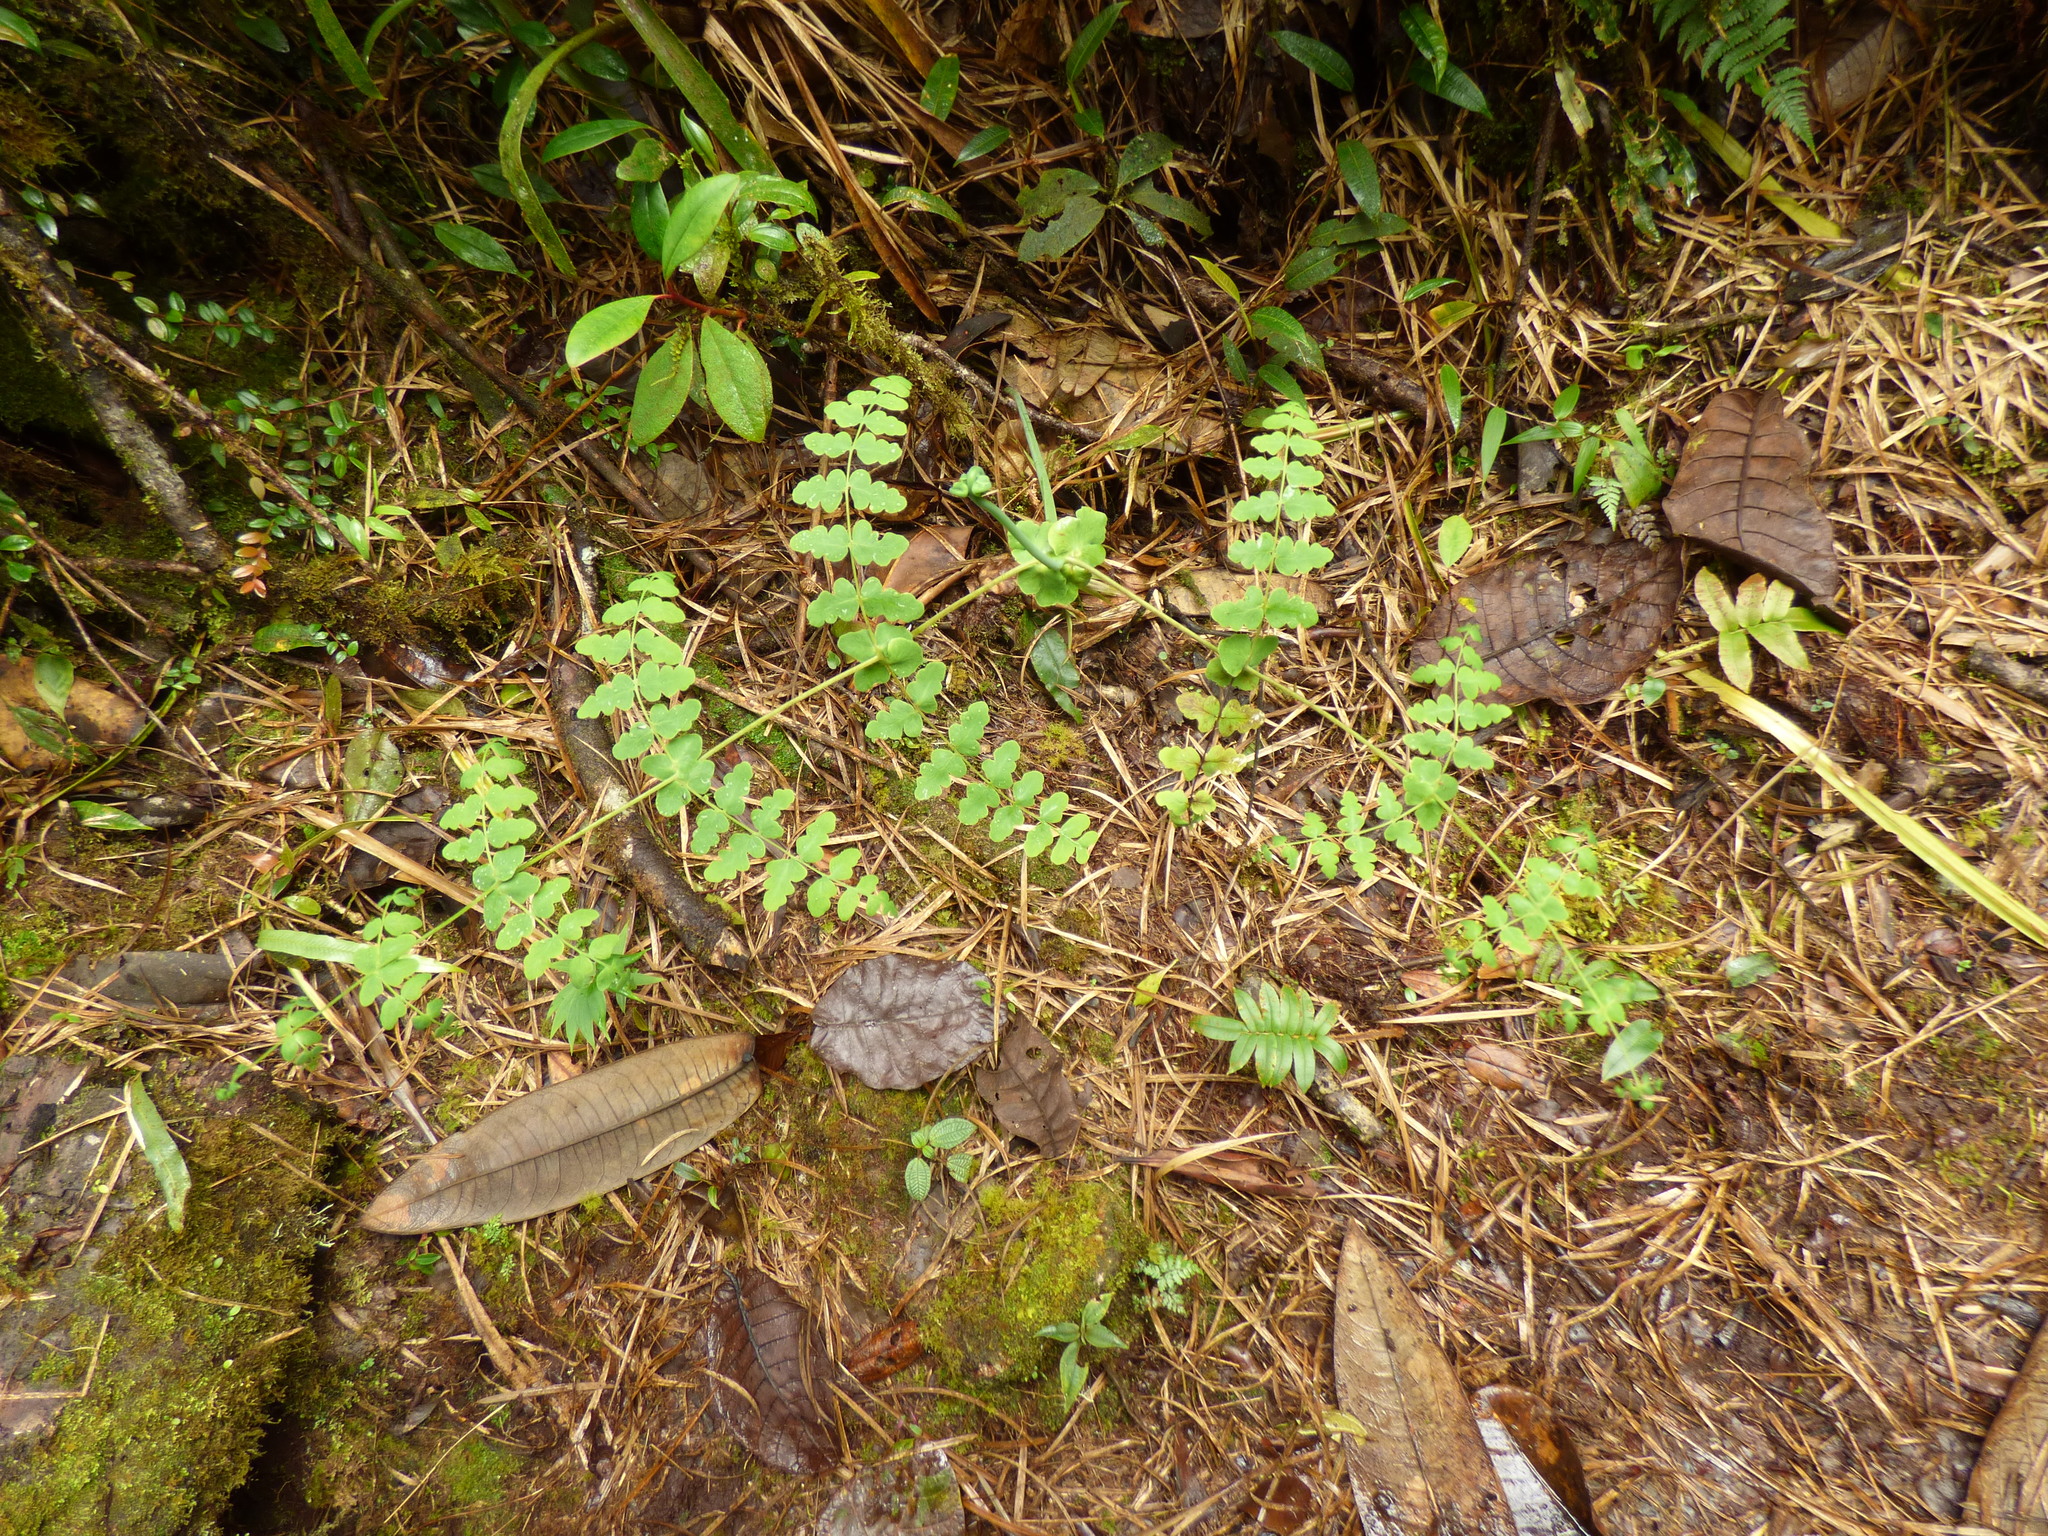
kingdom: Plantae
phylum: Tracheophyta
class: Polypodiopsida
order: Polypodiales
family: Dennstaedtiaceae
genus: Histiopteris
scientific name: Histiopteris incisa
